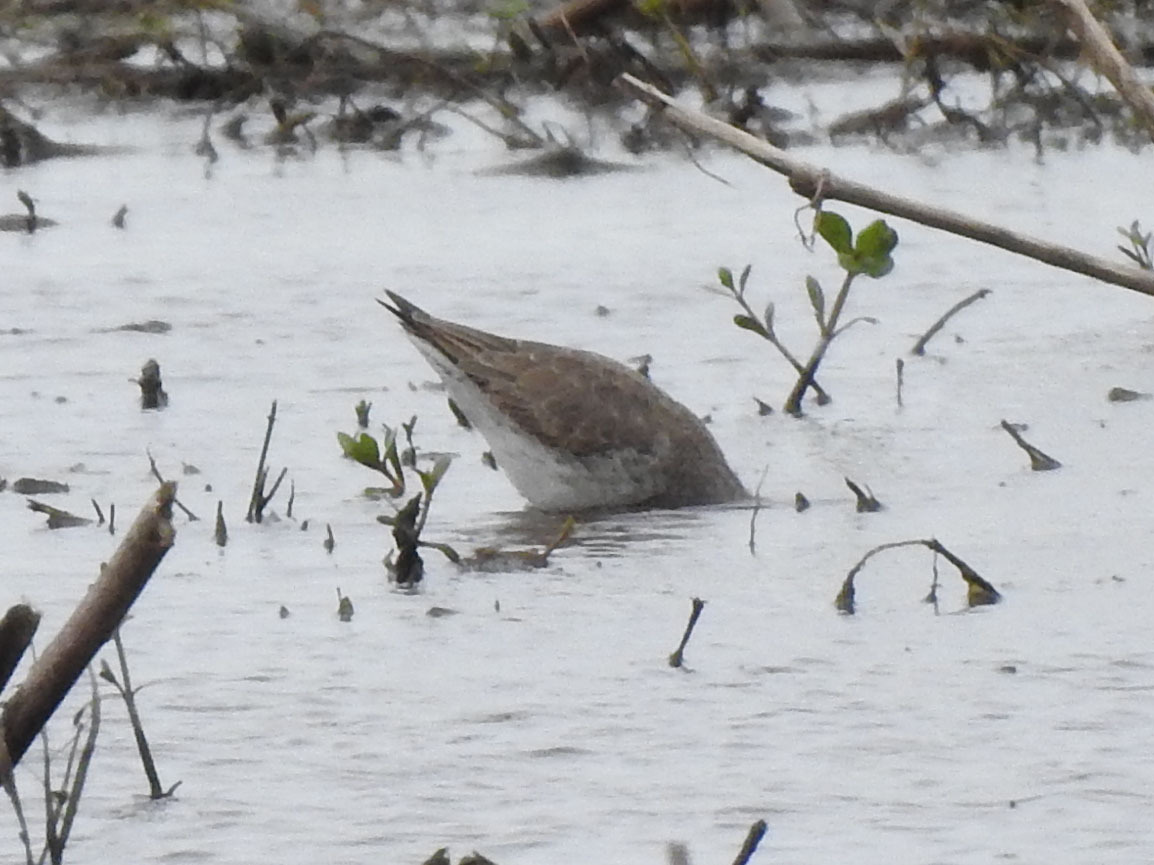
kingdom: Animalia
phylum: Chordata
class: Aves
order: Charadriiformes
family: Scolopacidae
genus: Calidris
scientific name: Calidris himantopus
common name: Stilt sandpiper
